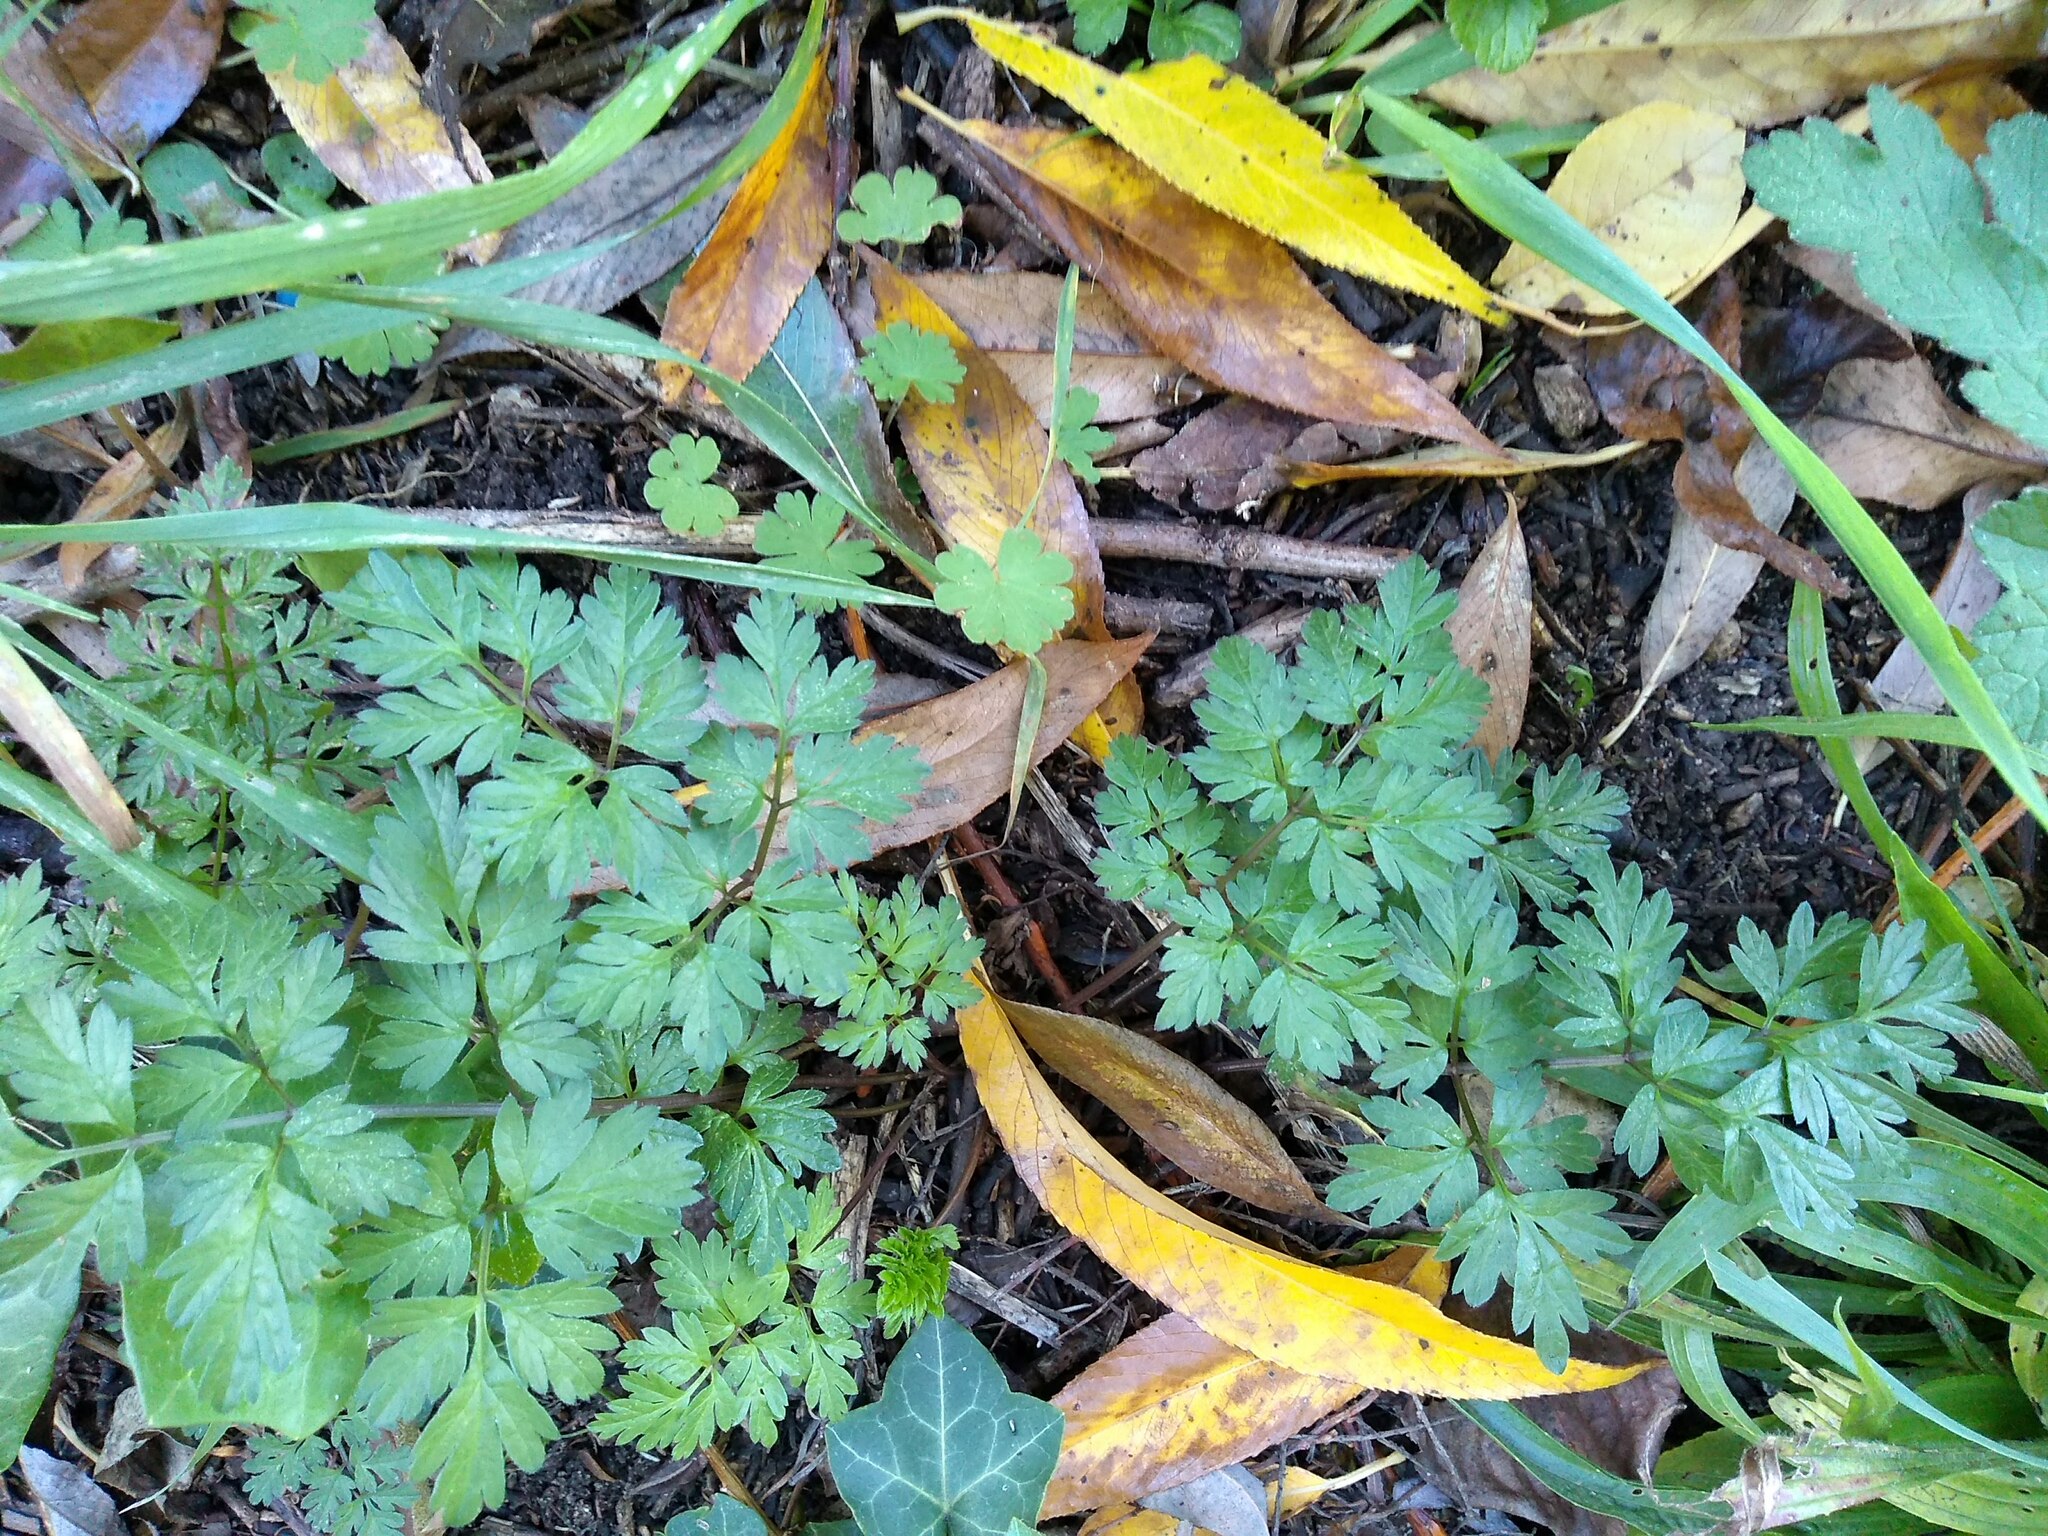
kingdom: Plantae
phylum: Tracheophyta
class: Magnoliopsida
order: Apiales
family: Apiaceae
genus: Anthriscus
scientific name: Anthriscus sylvestris
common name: Cow parsley
